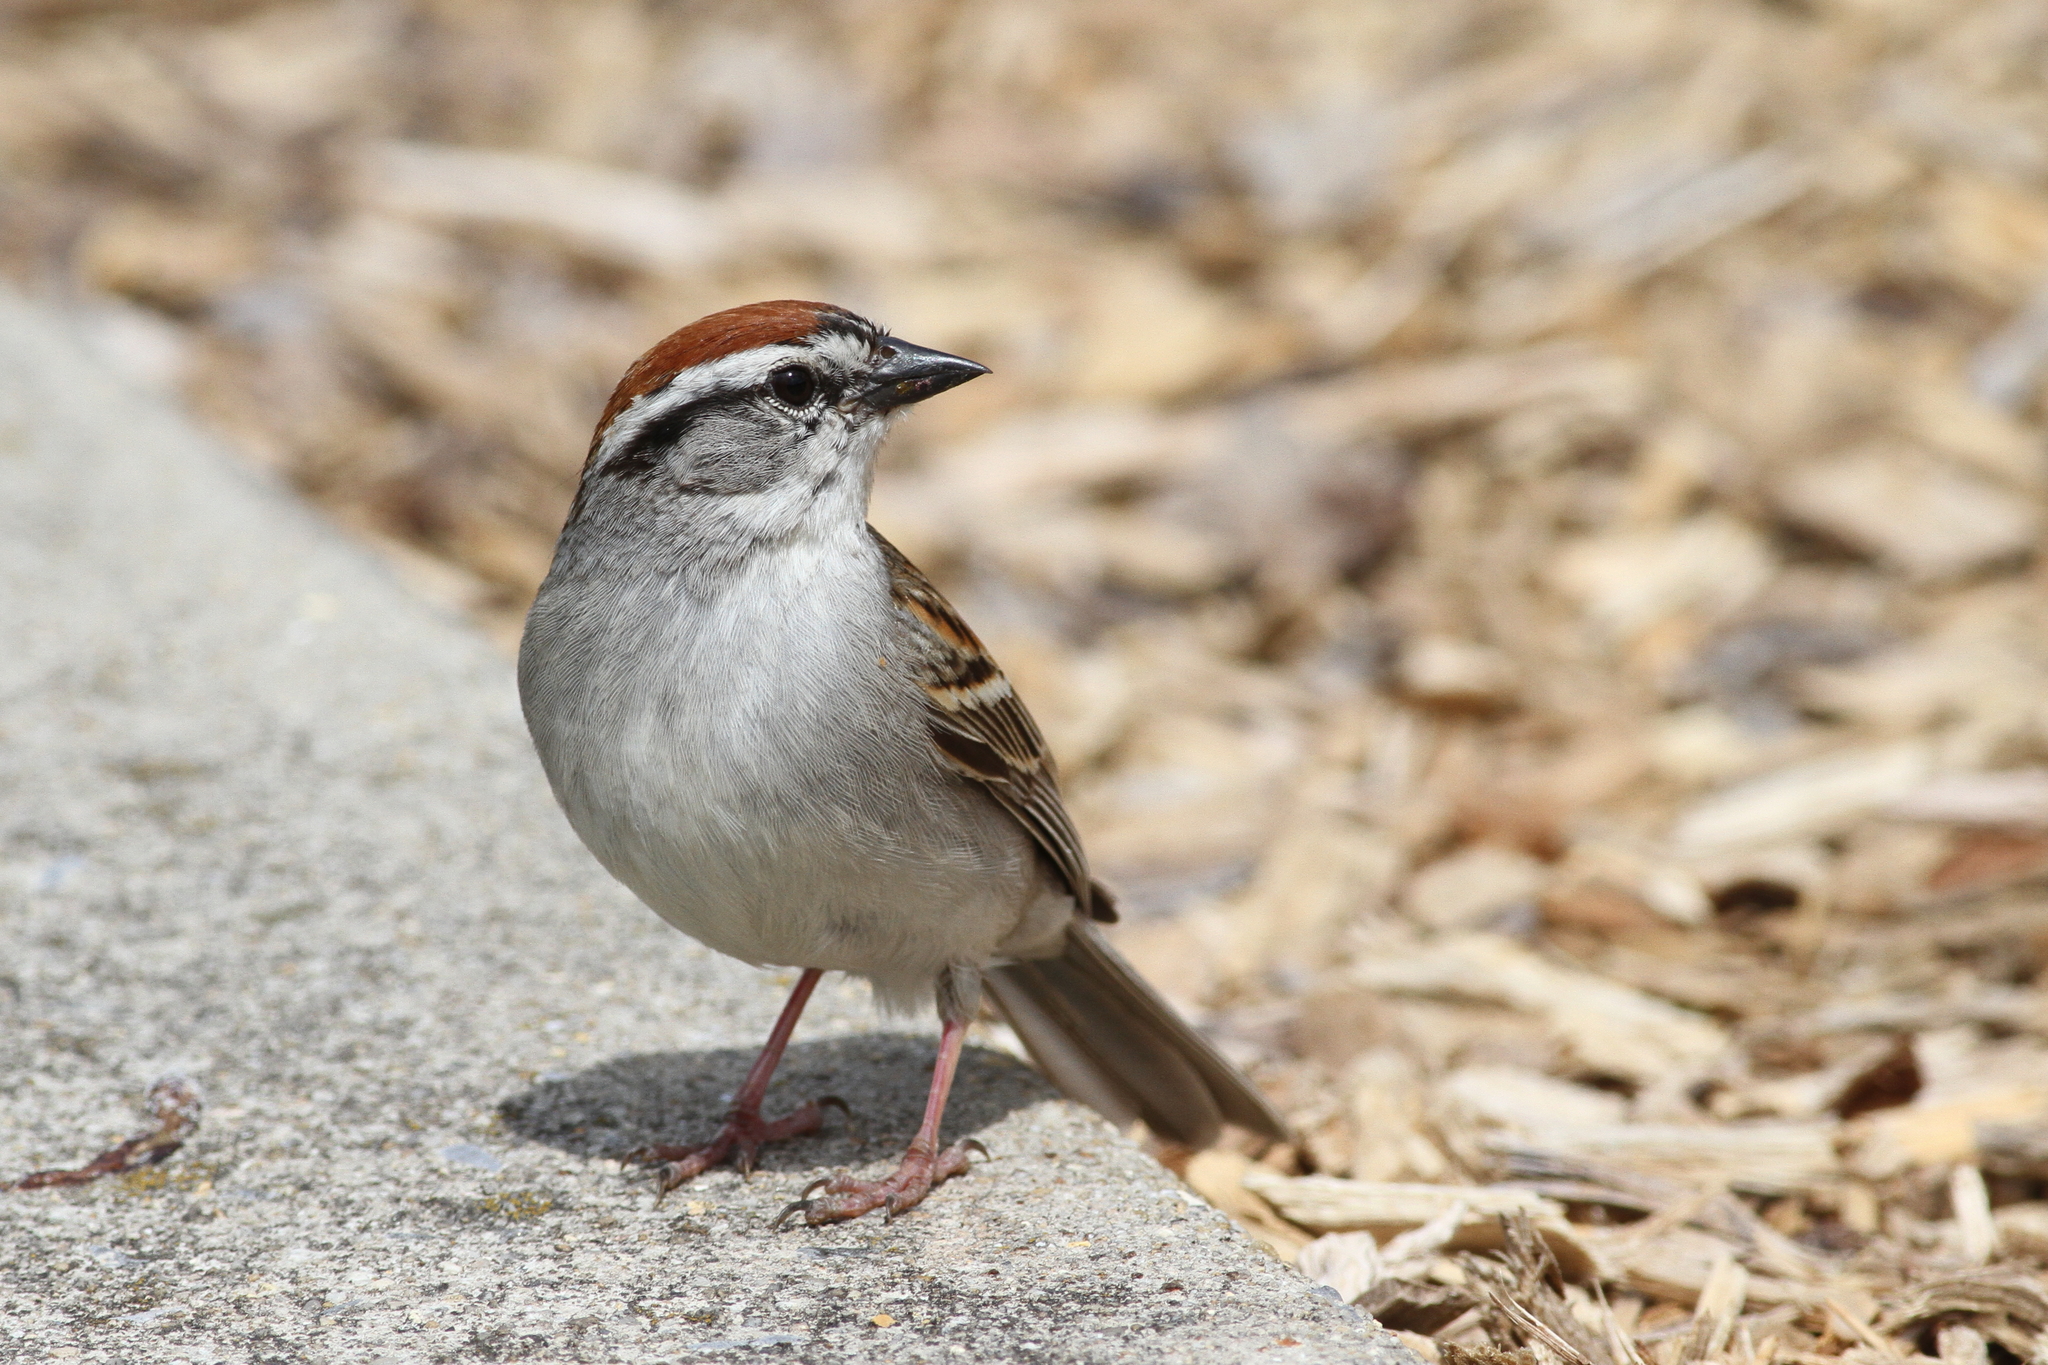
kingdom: Animalia
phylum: Chordata
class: Aves
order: Passeriformes
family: Passerellidae
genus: Spizella
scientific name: Spizella passerina
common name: Chipping sparrow
